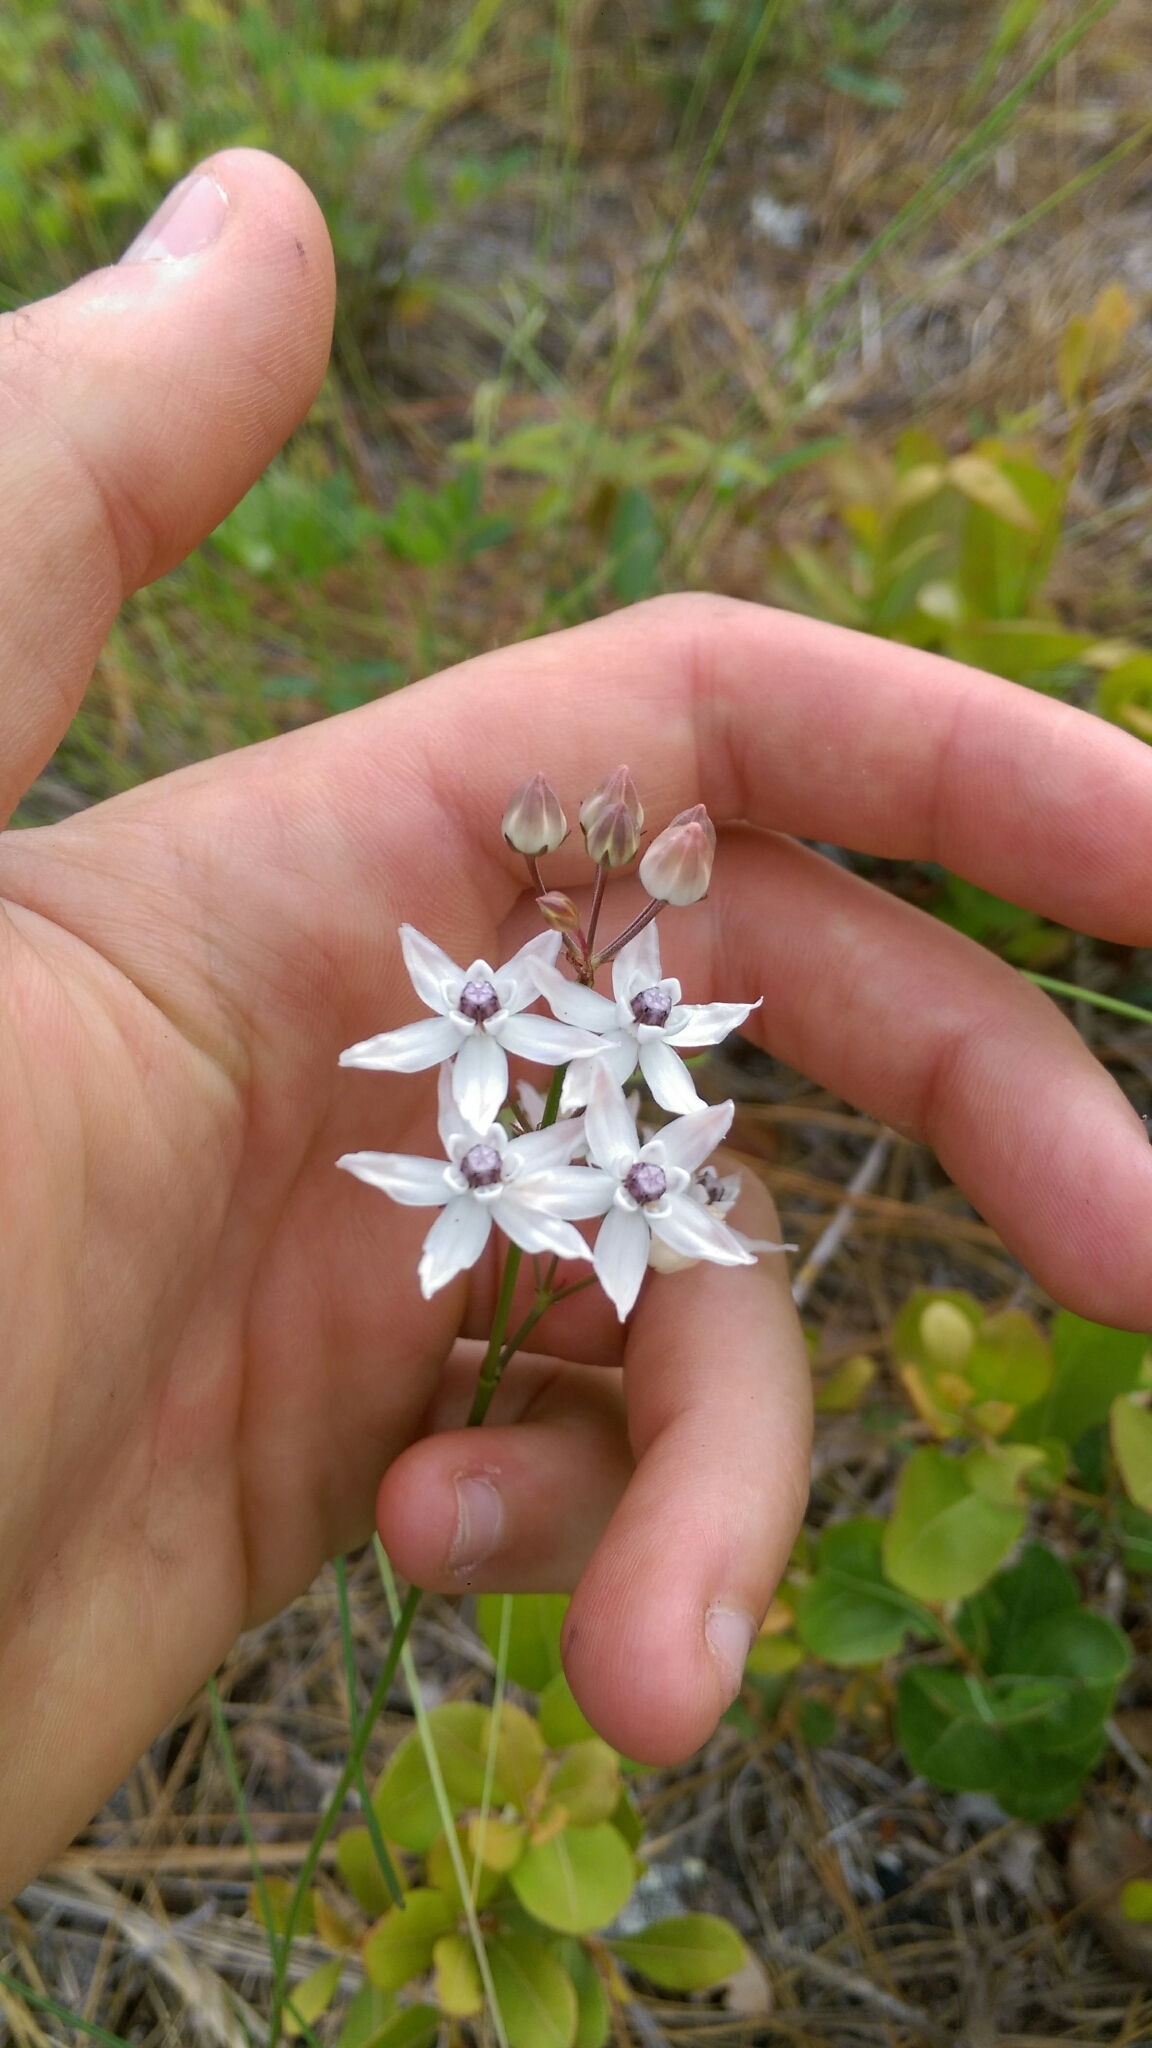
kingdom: Plantae
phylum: Tracheophyta
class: Magnoliopsida
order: Gentianales
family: Apocynaceae
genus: Asclepias
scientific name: Asclepias feayi
